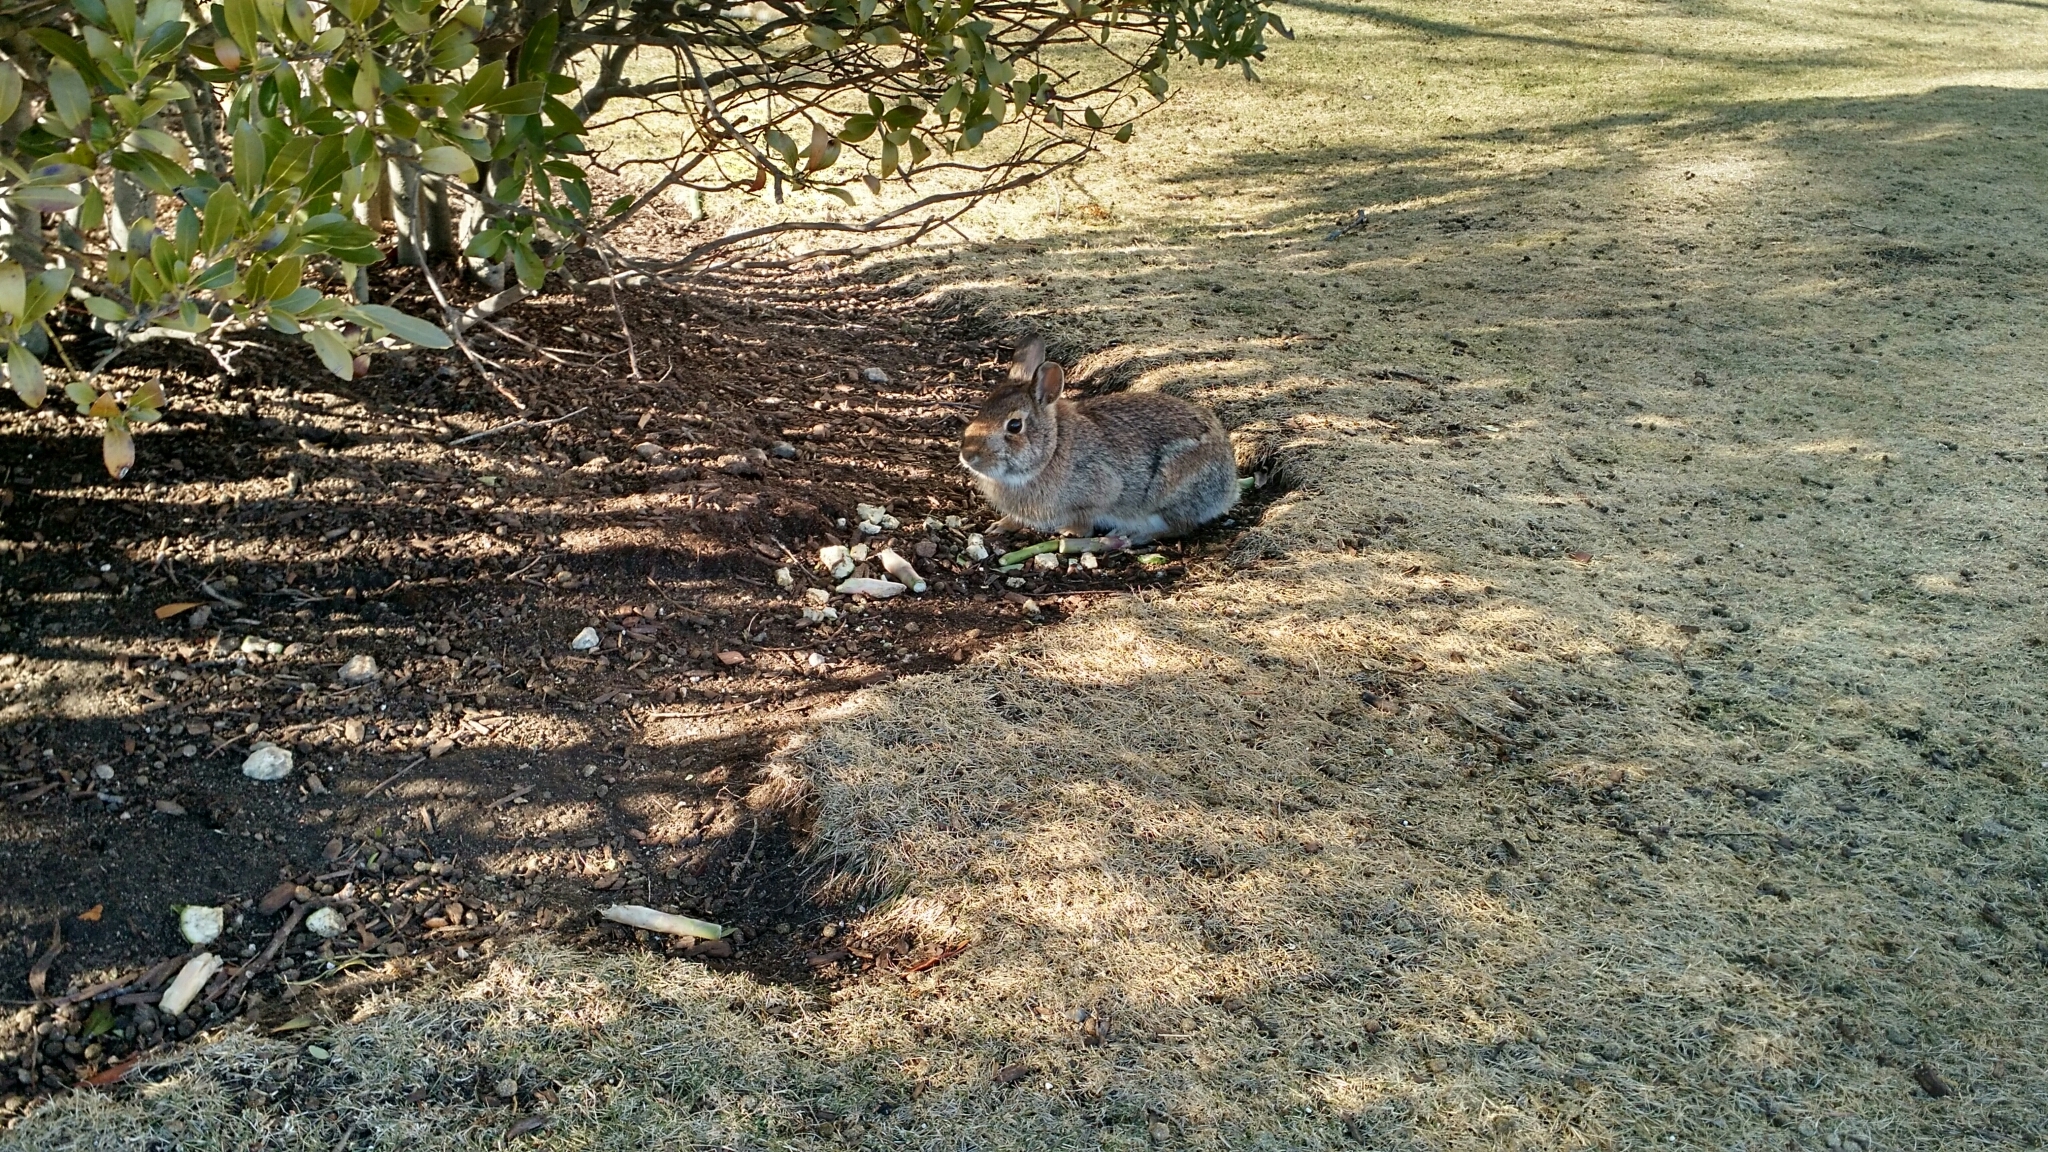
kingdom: Animalia
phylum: Chordata
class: Mammalia
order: Lagomorpha
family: Leporidae
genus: Sylvilagus
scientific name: Sylvilagus floridanus
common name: Eastern cottontail
